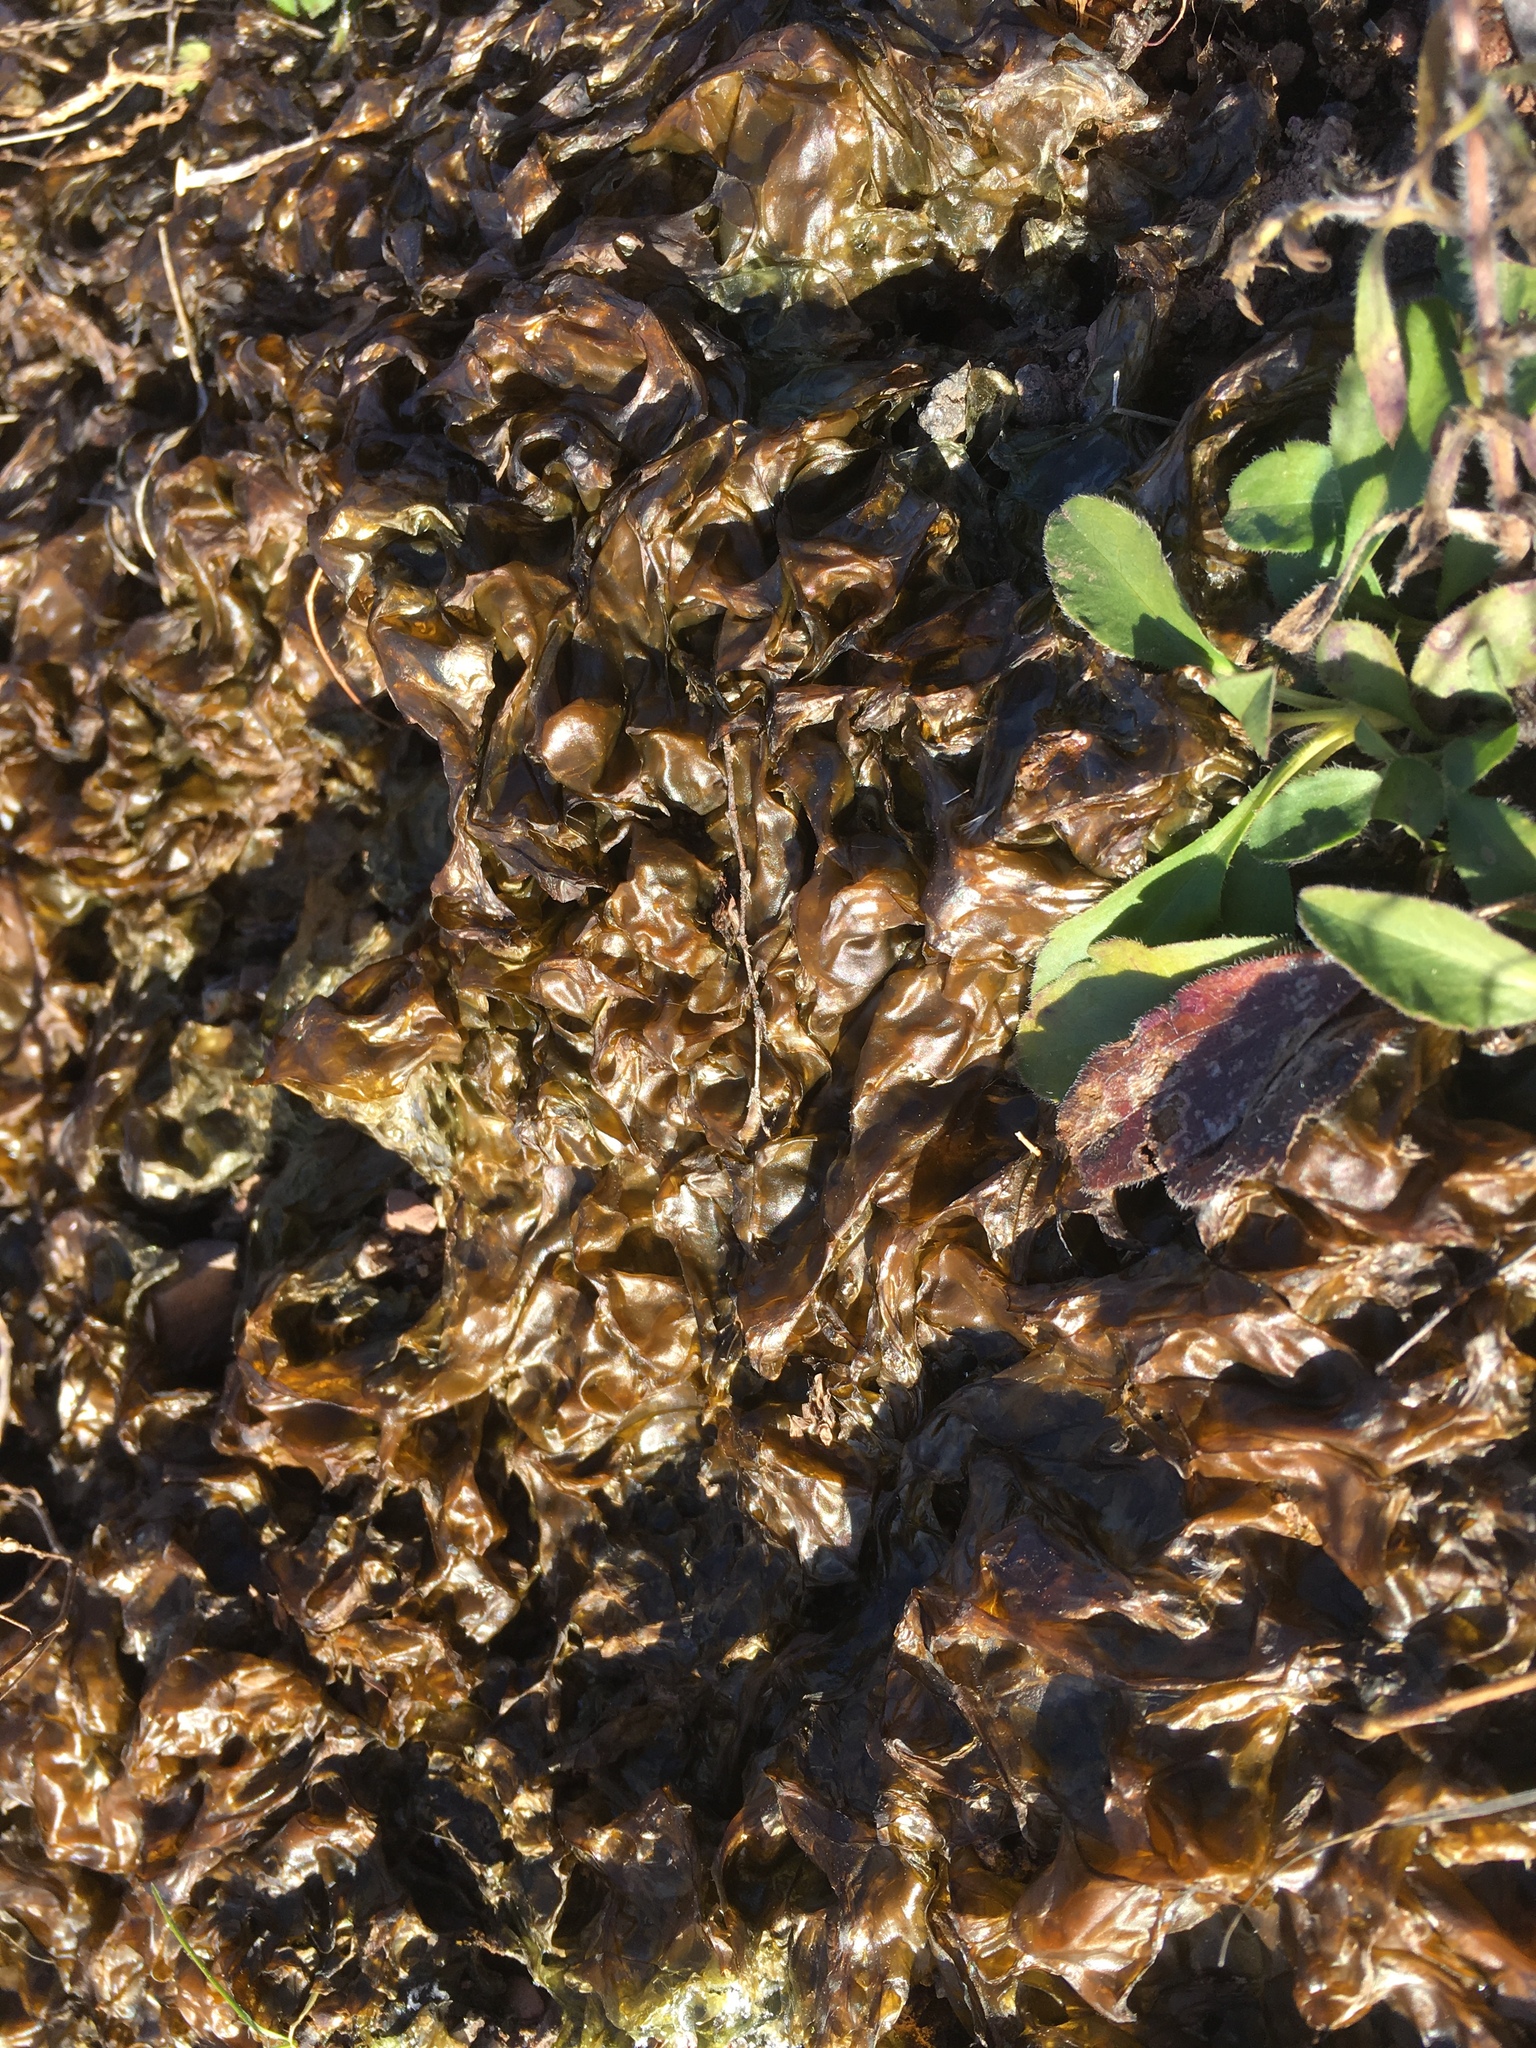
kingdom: Bacteria
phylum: Cyanobacteria
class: Cyanobacteriia
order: Cyanobacteriales
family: Nostocaceae
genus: Nostoc
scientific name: Nostoc commune
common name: Star jelly
